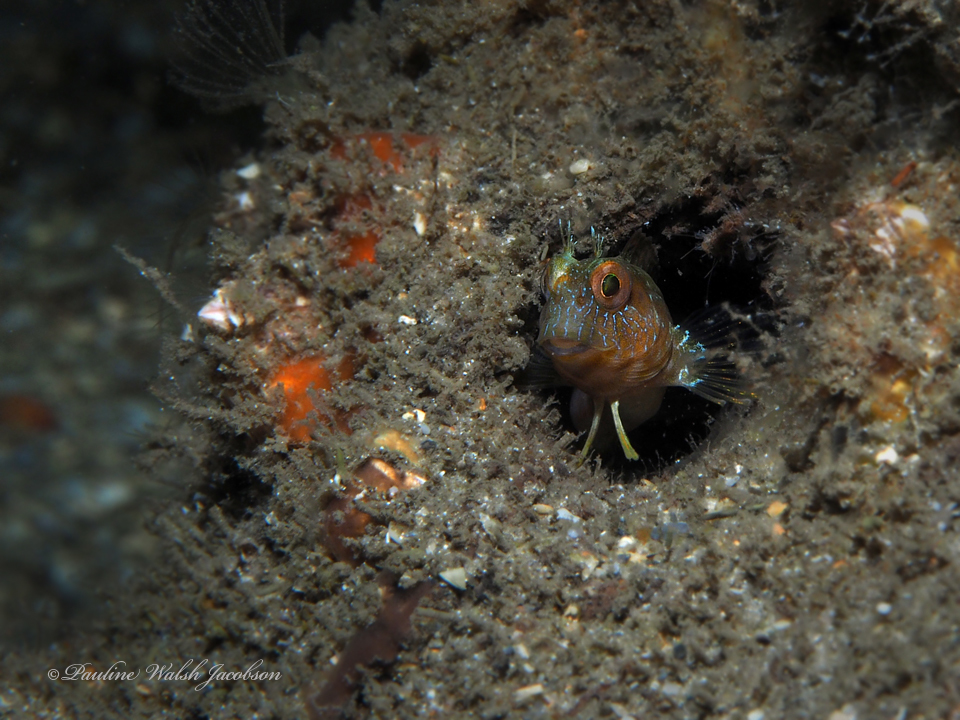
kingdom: Animalia
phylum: Chordata
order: Perciformes
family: Blenniidae
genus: Parablennius
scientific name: Parablennius marmoreus
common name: Seaweed blenny
